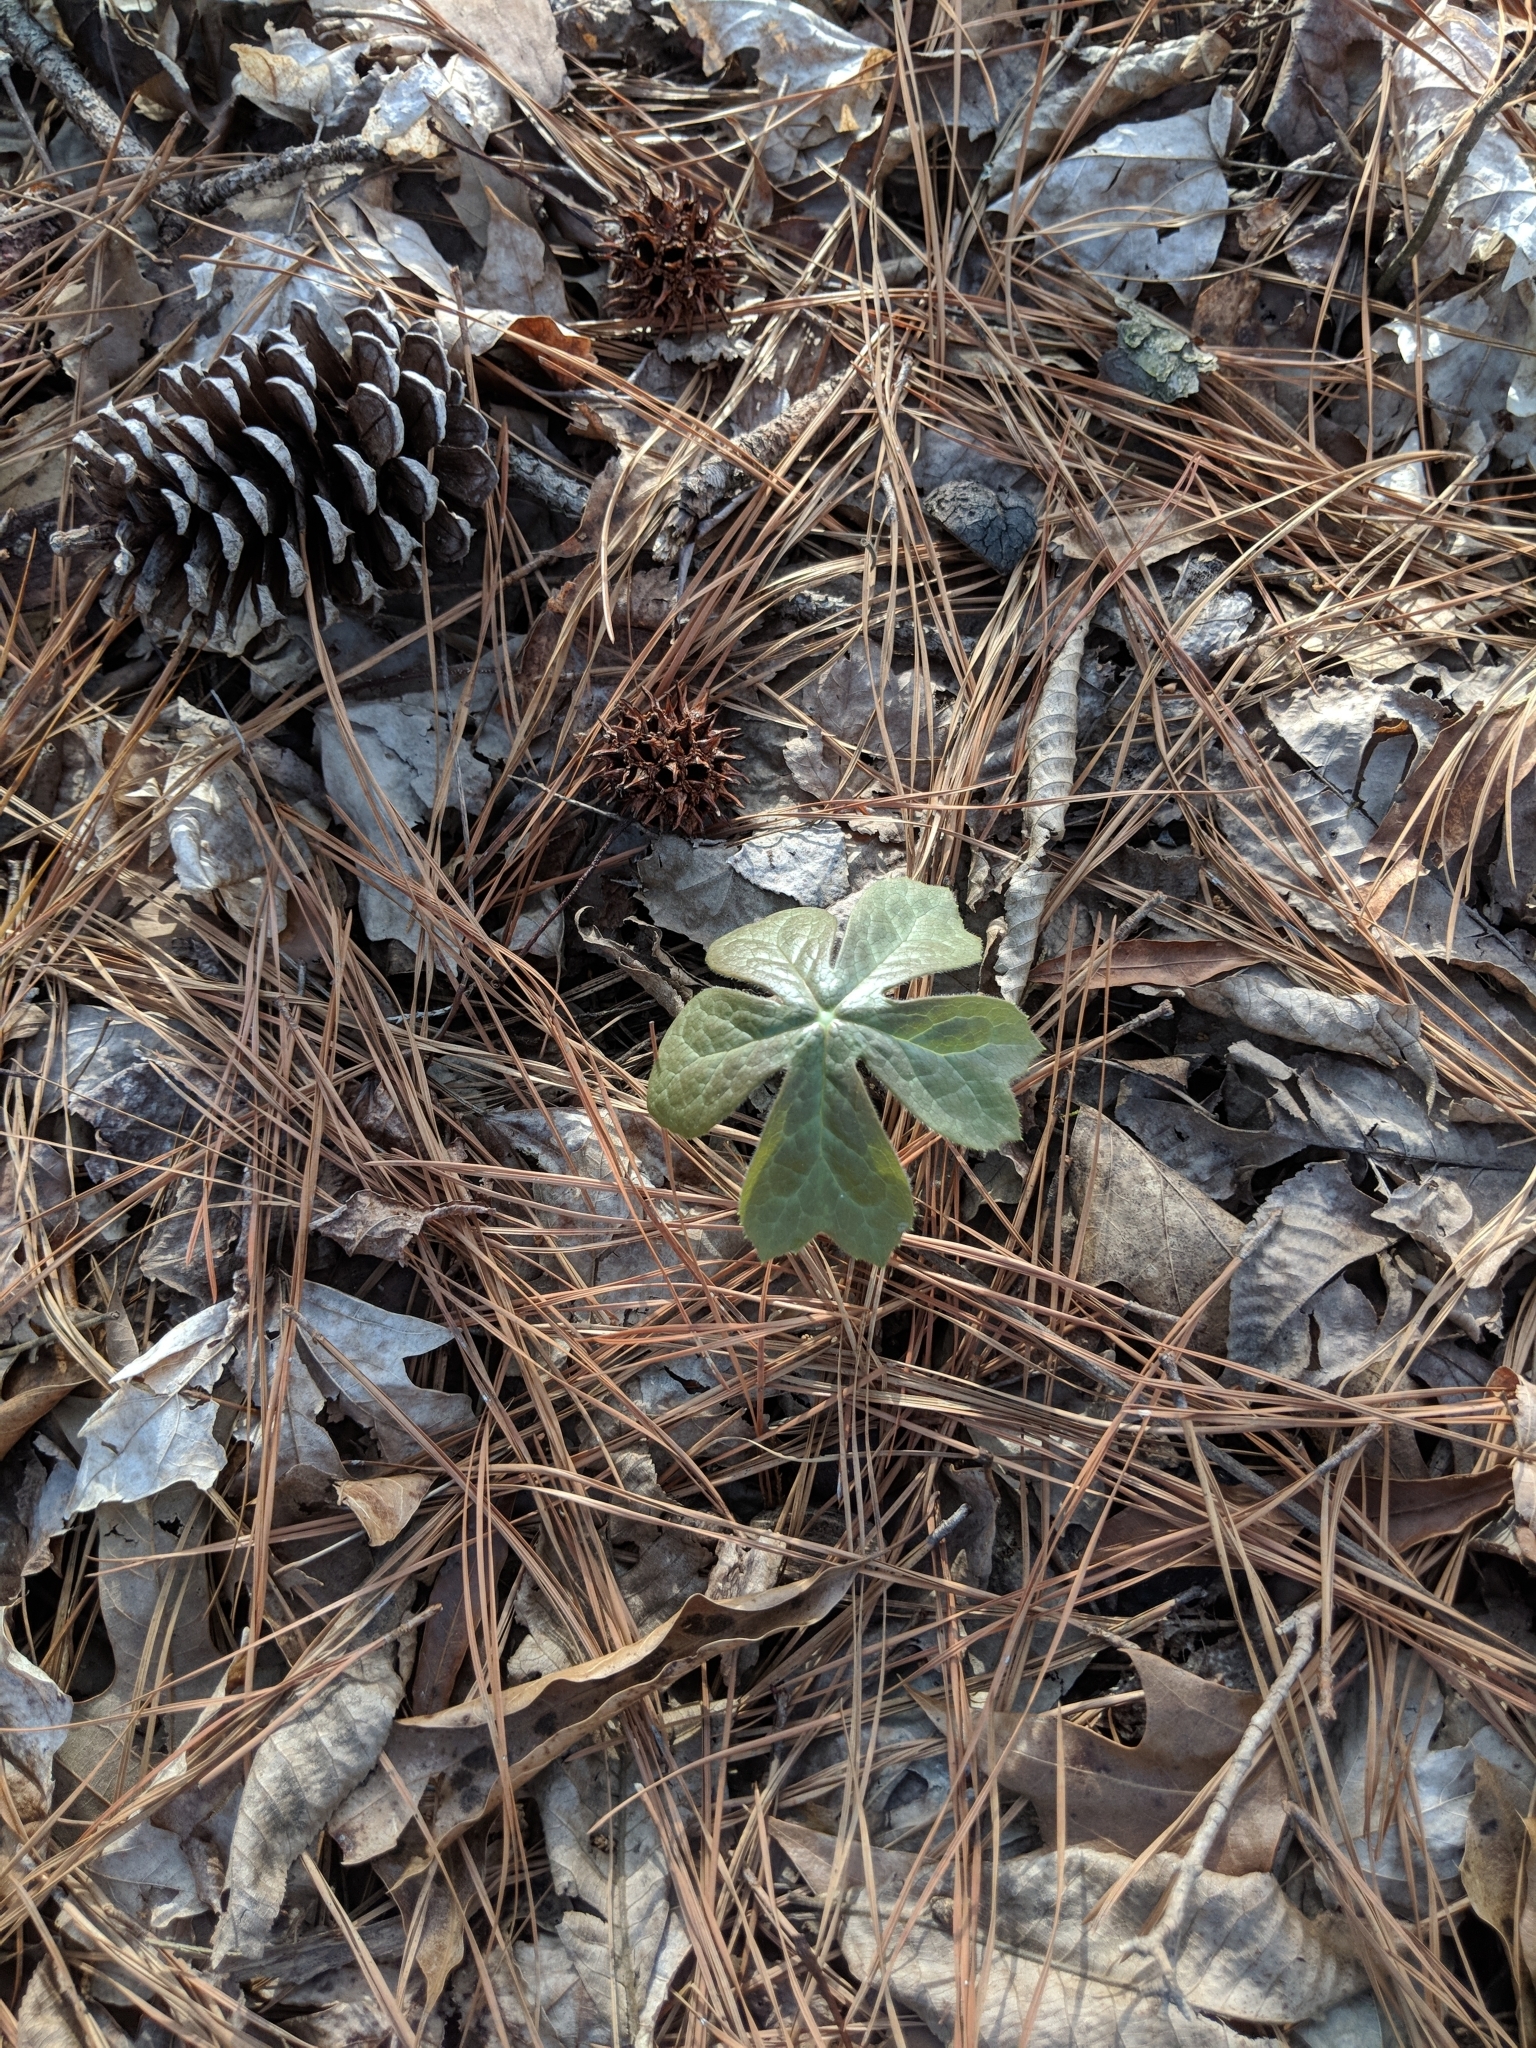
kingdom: Plantae
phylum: Tracheophyta
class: Magnoliopsida
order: Ranunculales
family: Berberidaceae
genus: Podophyllum
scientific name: Podophyllum peltatum
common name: Wild mandrake
